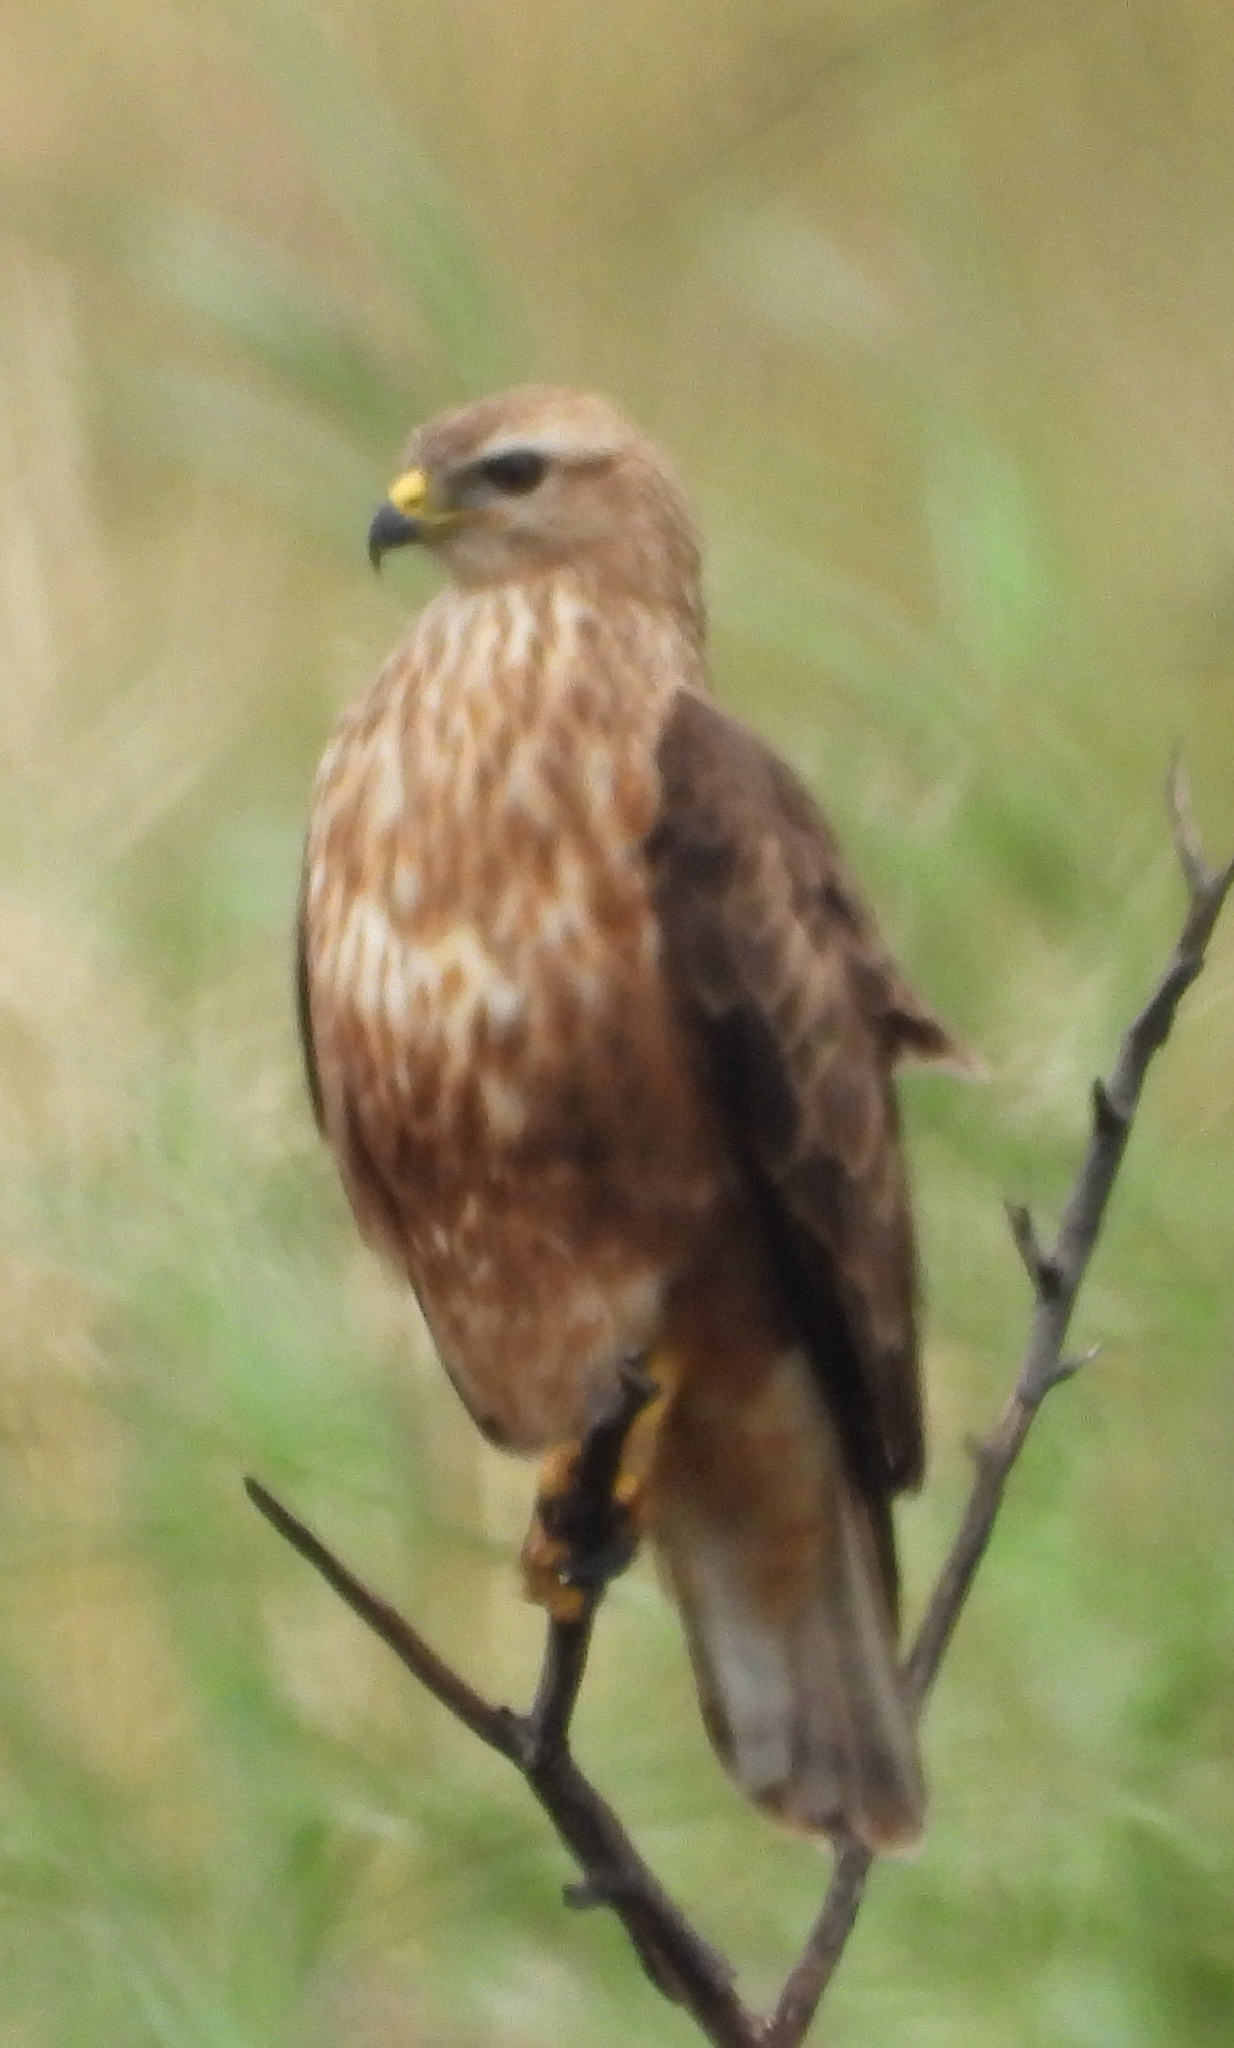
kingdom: Animalia
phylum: Chordata
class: Aves
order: Accipitriformes
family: Accipitridae
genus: Buteo
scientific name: Buteo buteo
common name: Common buzzard
